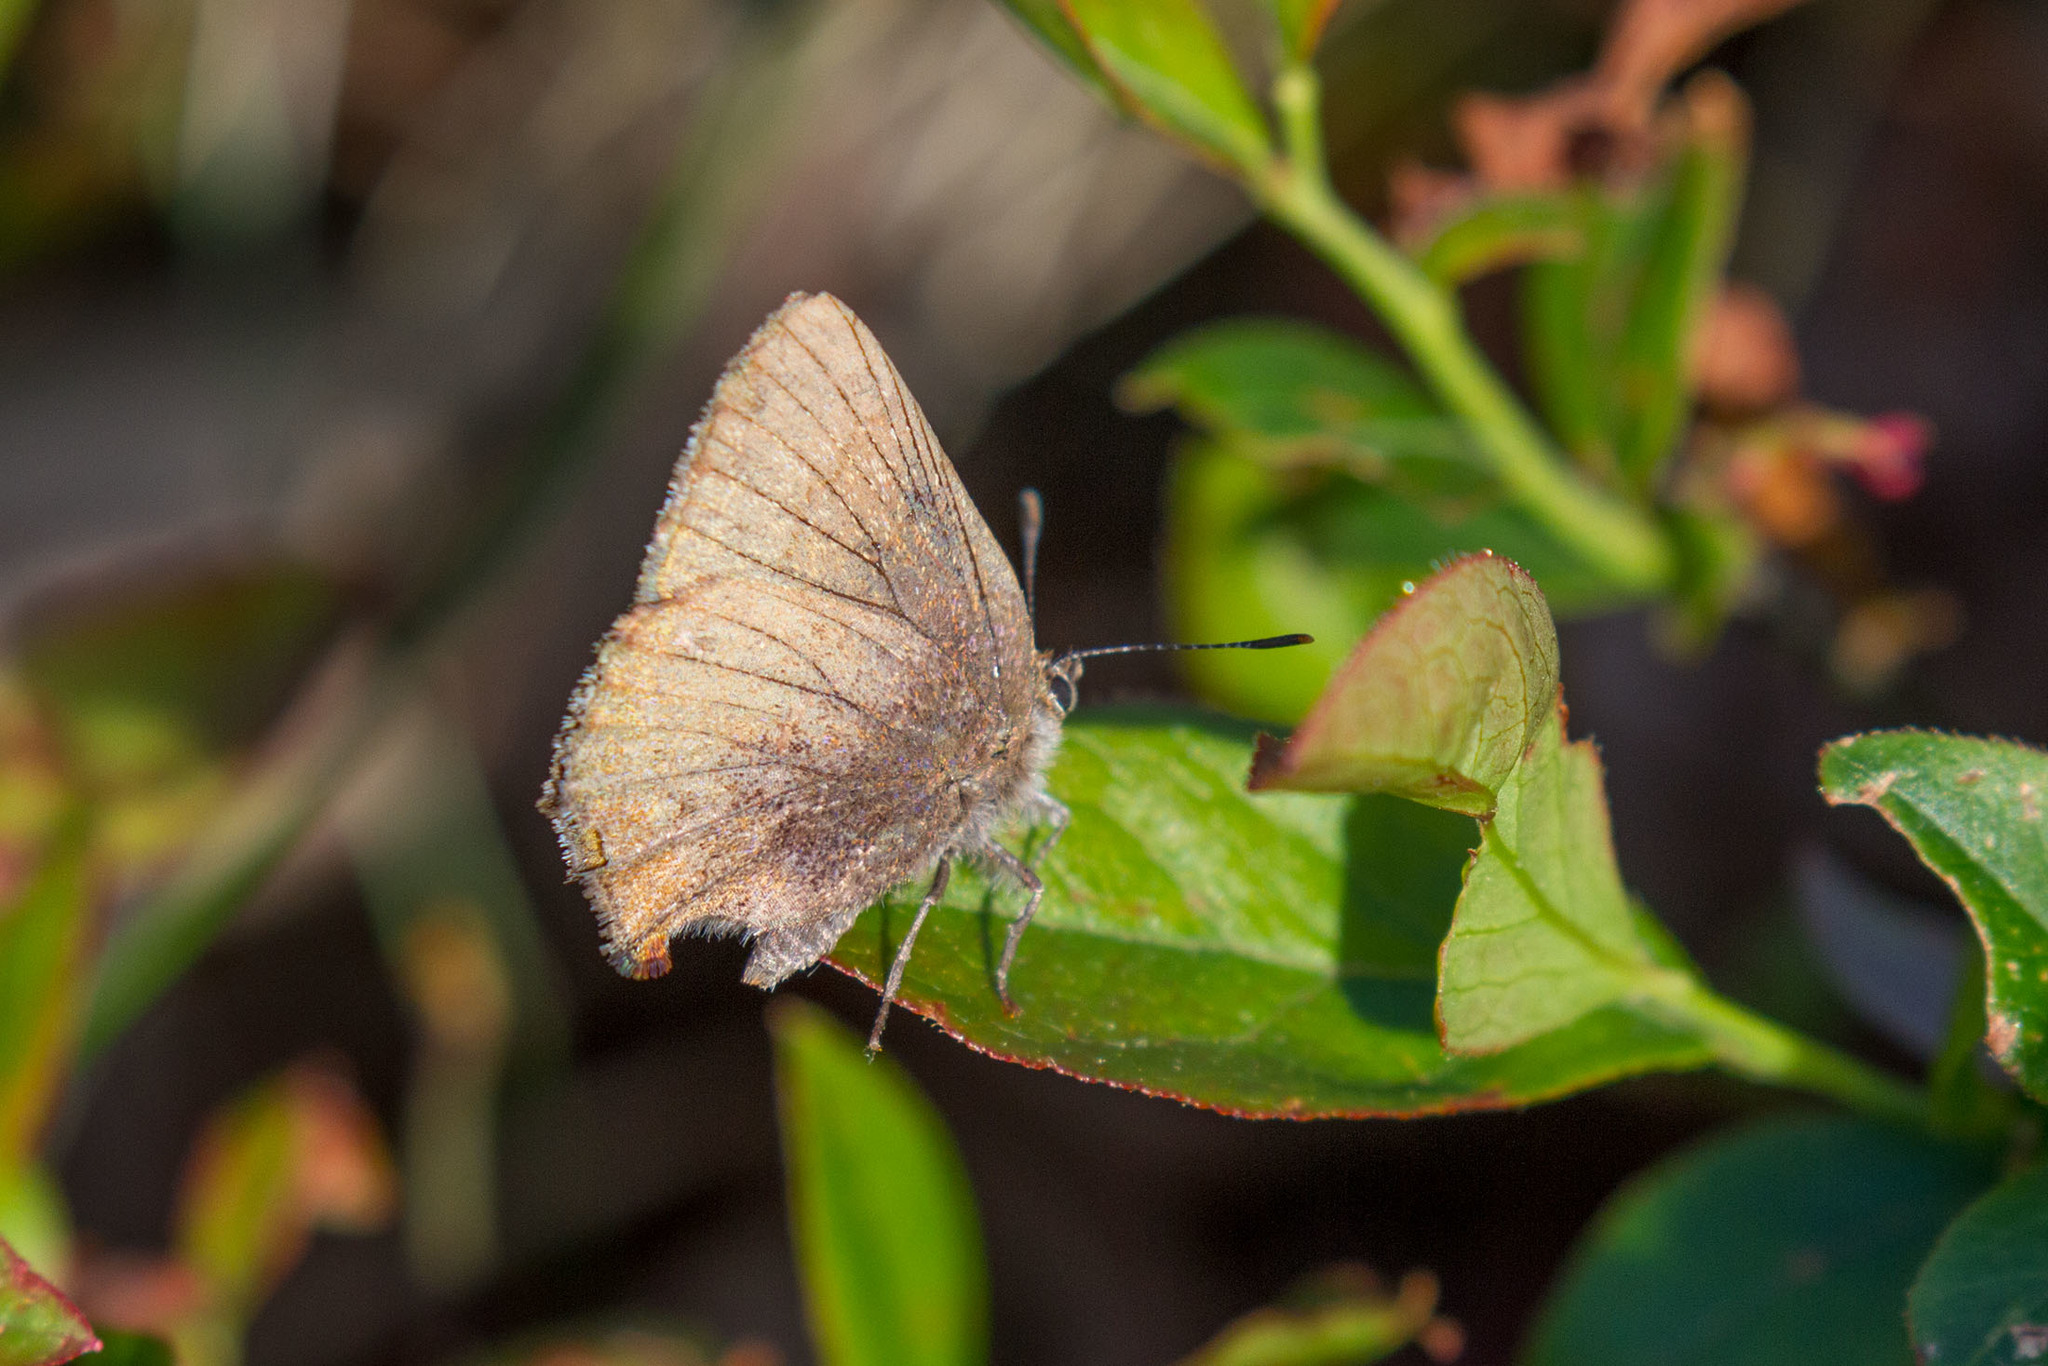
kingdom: Animalia
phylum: Arthropoda
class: Insecta
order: Lepidoptera
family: Lycaenidae
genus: Incisalia
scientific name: Incisalia irioides
